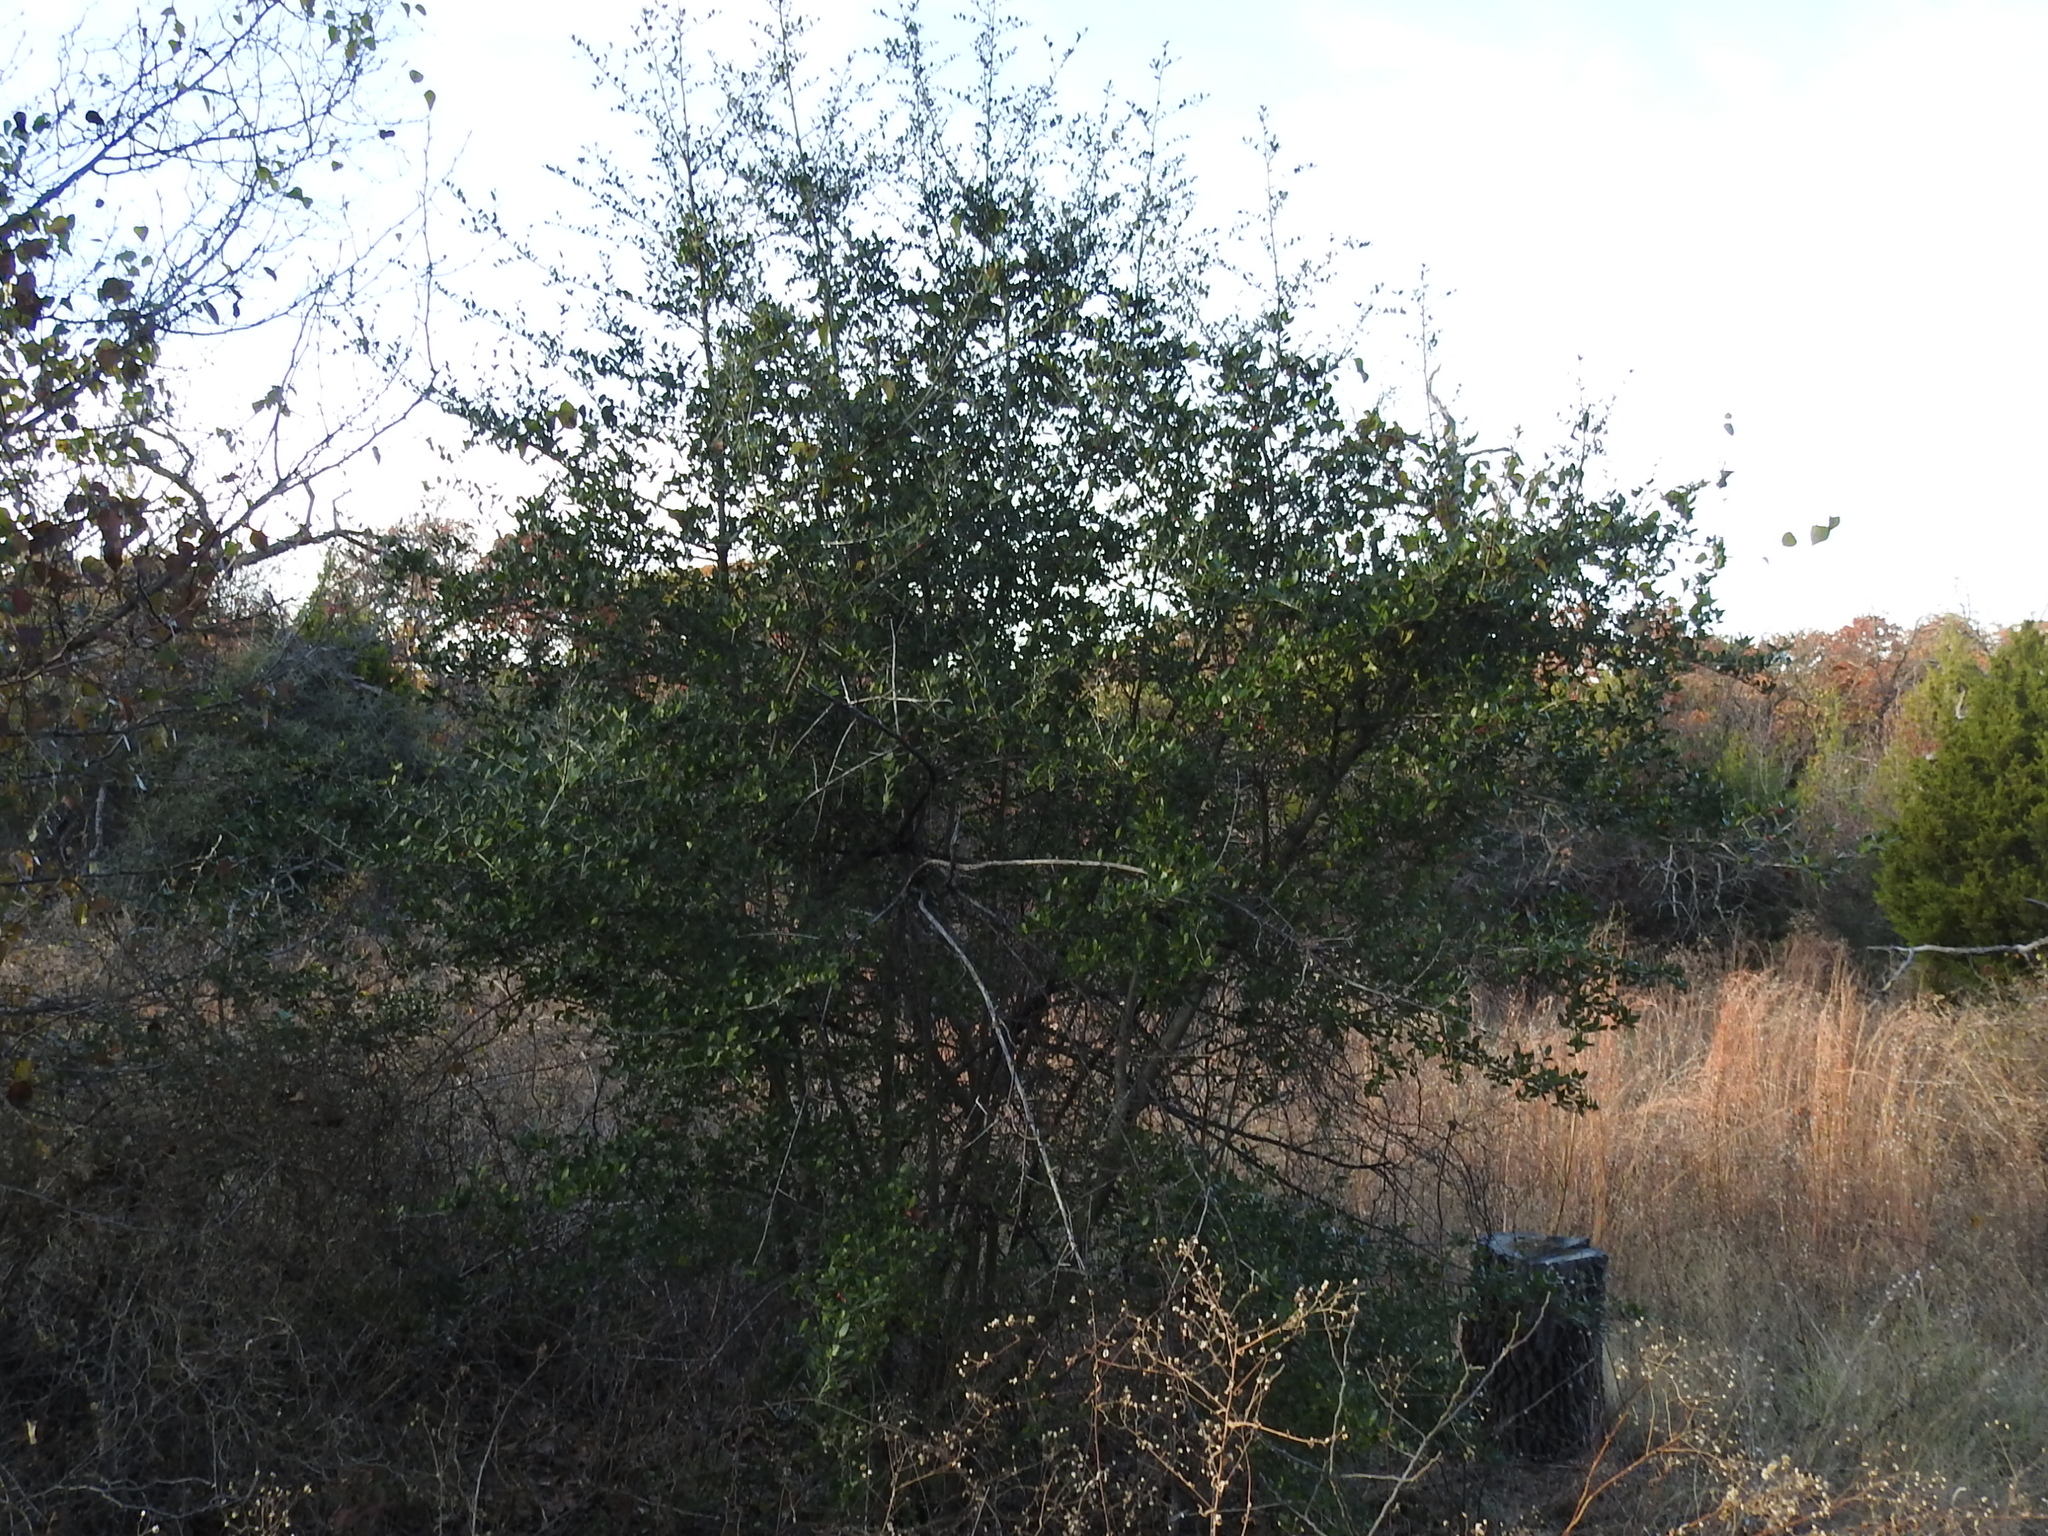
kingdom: Plantae
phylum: Tracheophyta
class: Magnoliopsida
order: Aquifoliales
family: Aquifoliaceae
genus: Ilex
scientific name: Ilex vomitoria
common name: Yaupon holly
